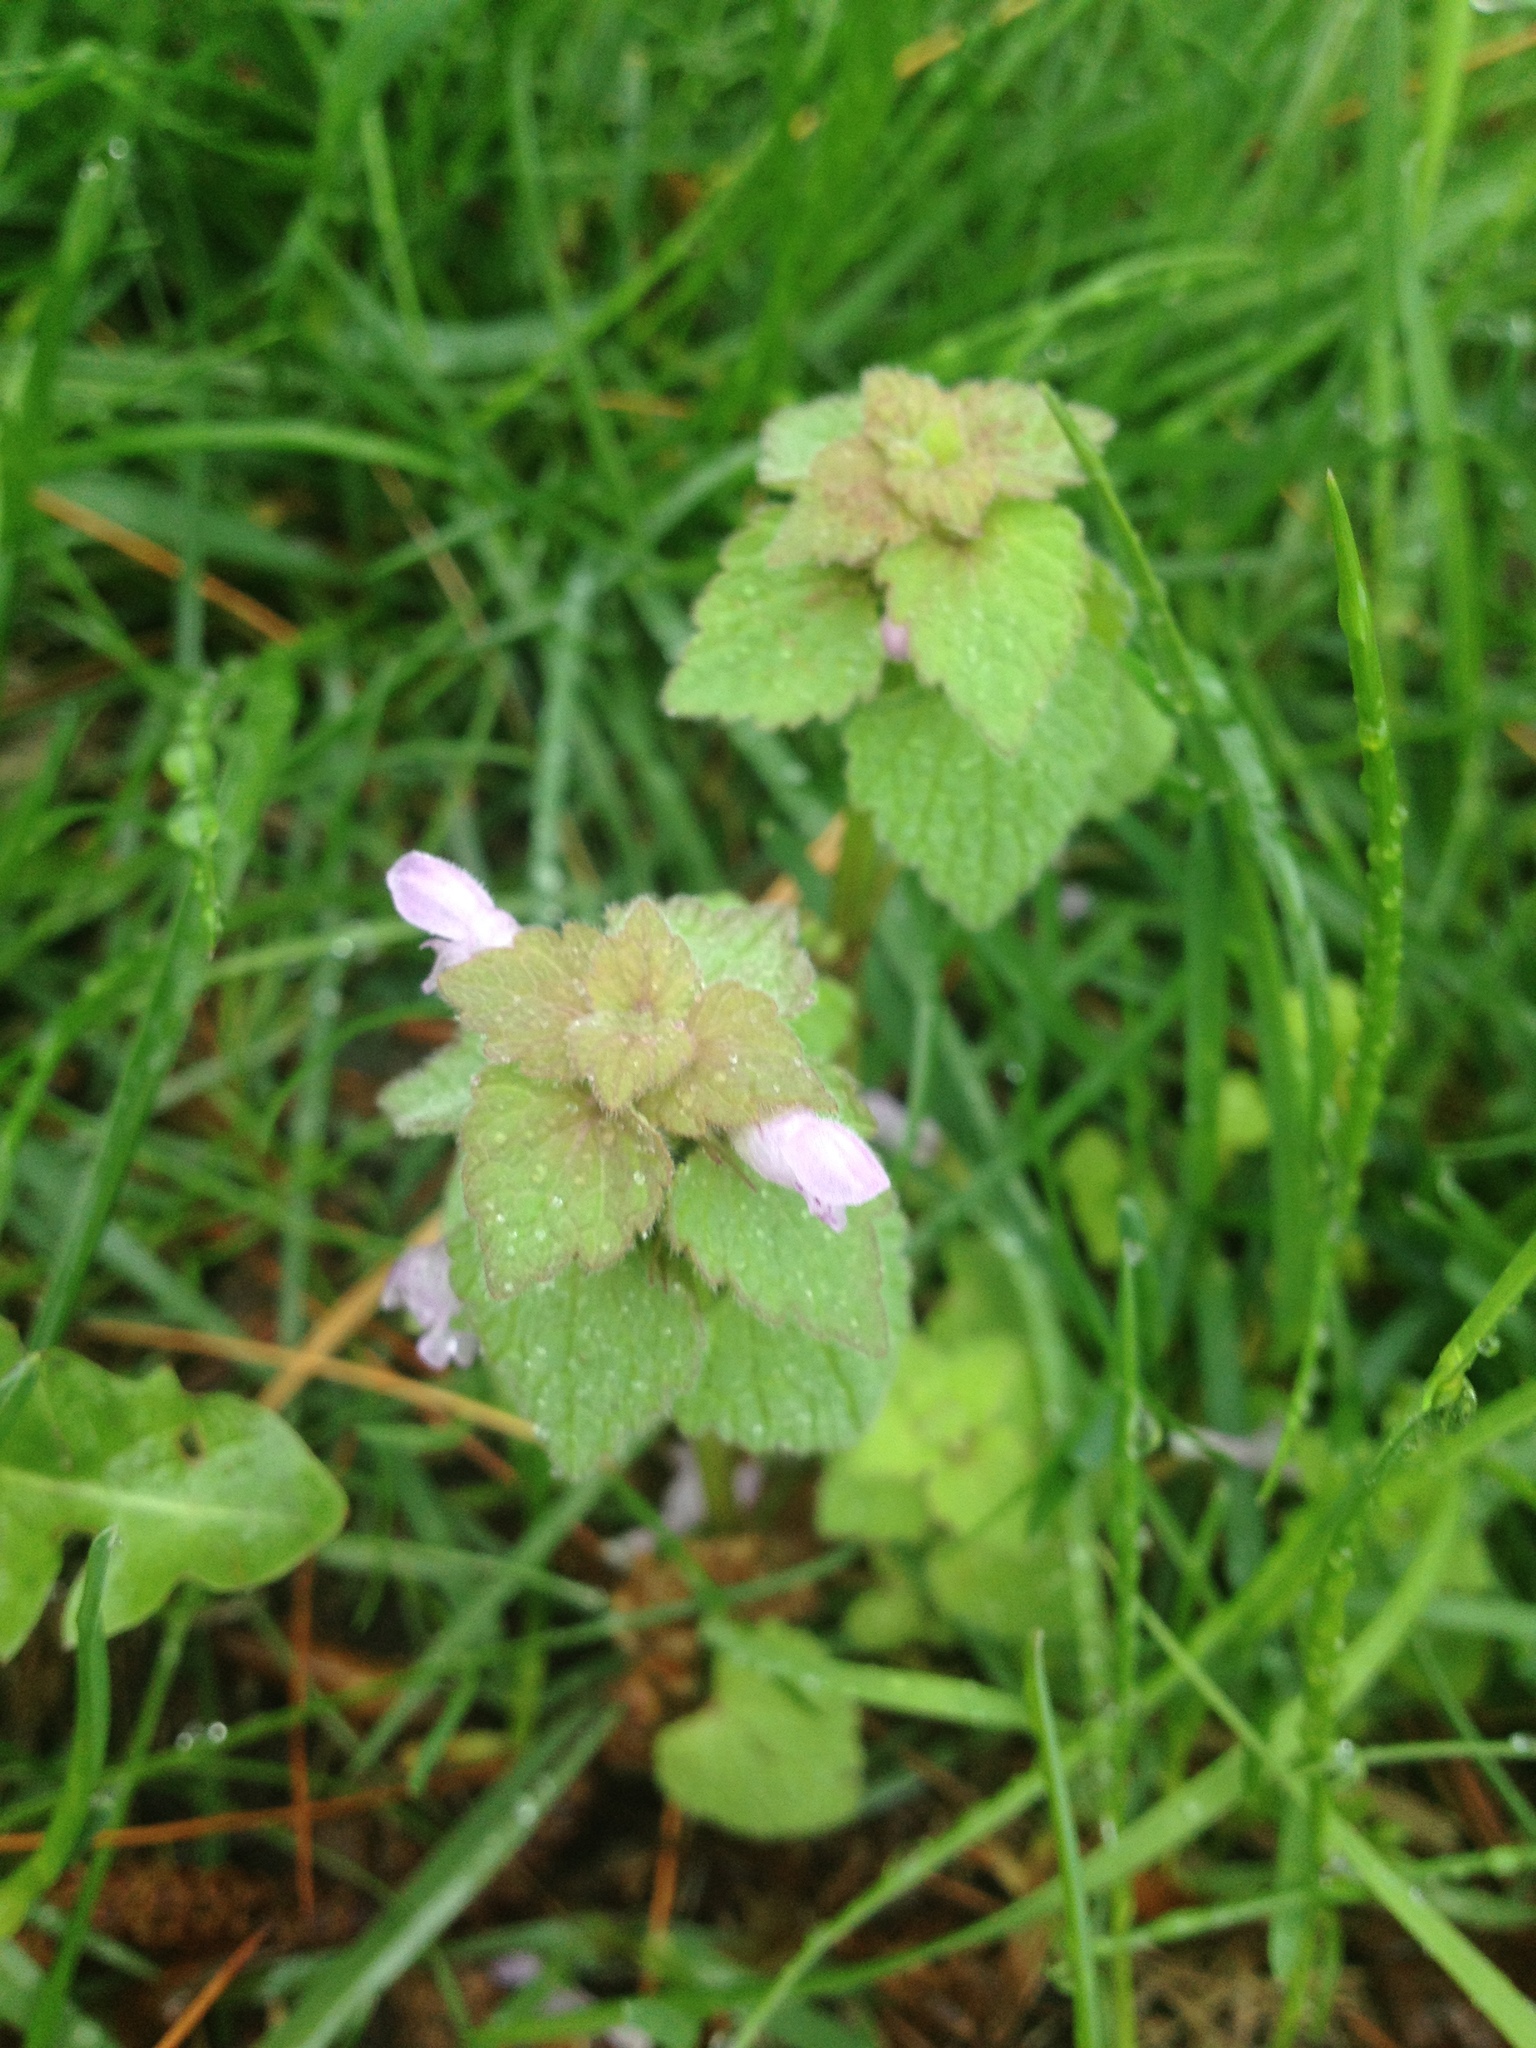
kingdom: Plantae
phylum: Tracheophyta
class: Magnoliopsida
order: Lamiales
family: Lamiaceae
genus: Lamium
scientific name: Lamium purpureum
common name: Red dead-nettle
